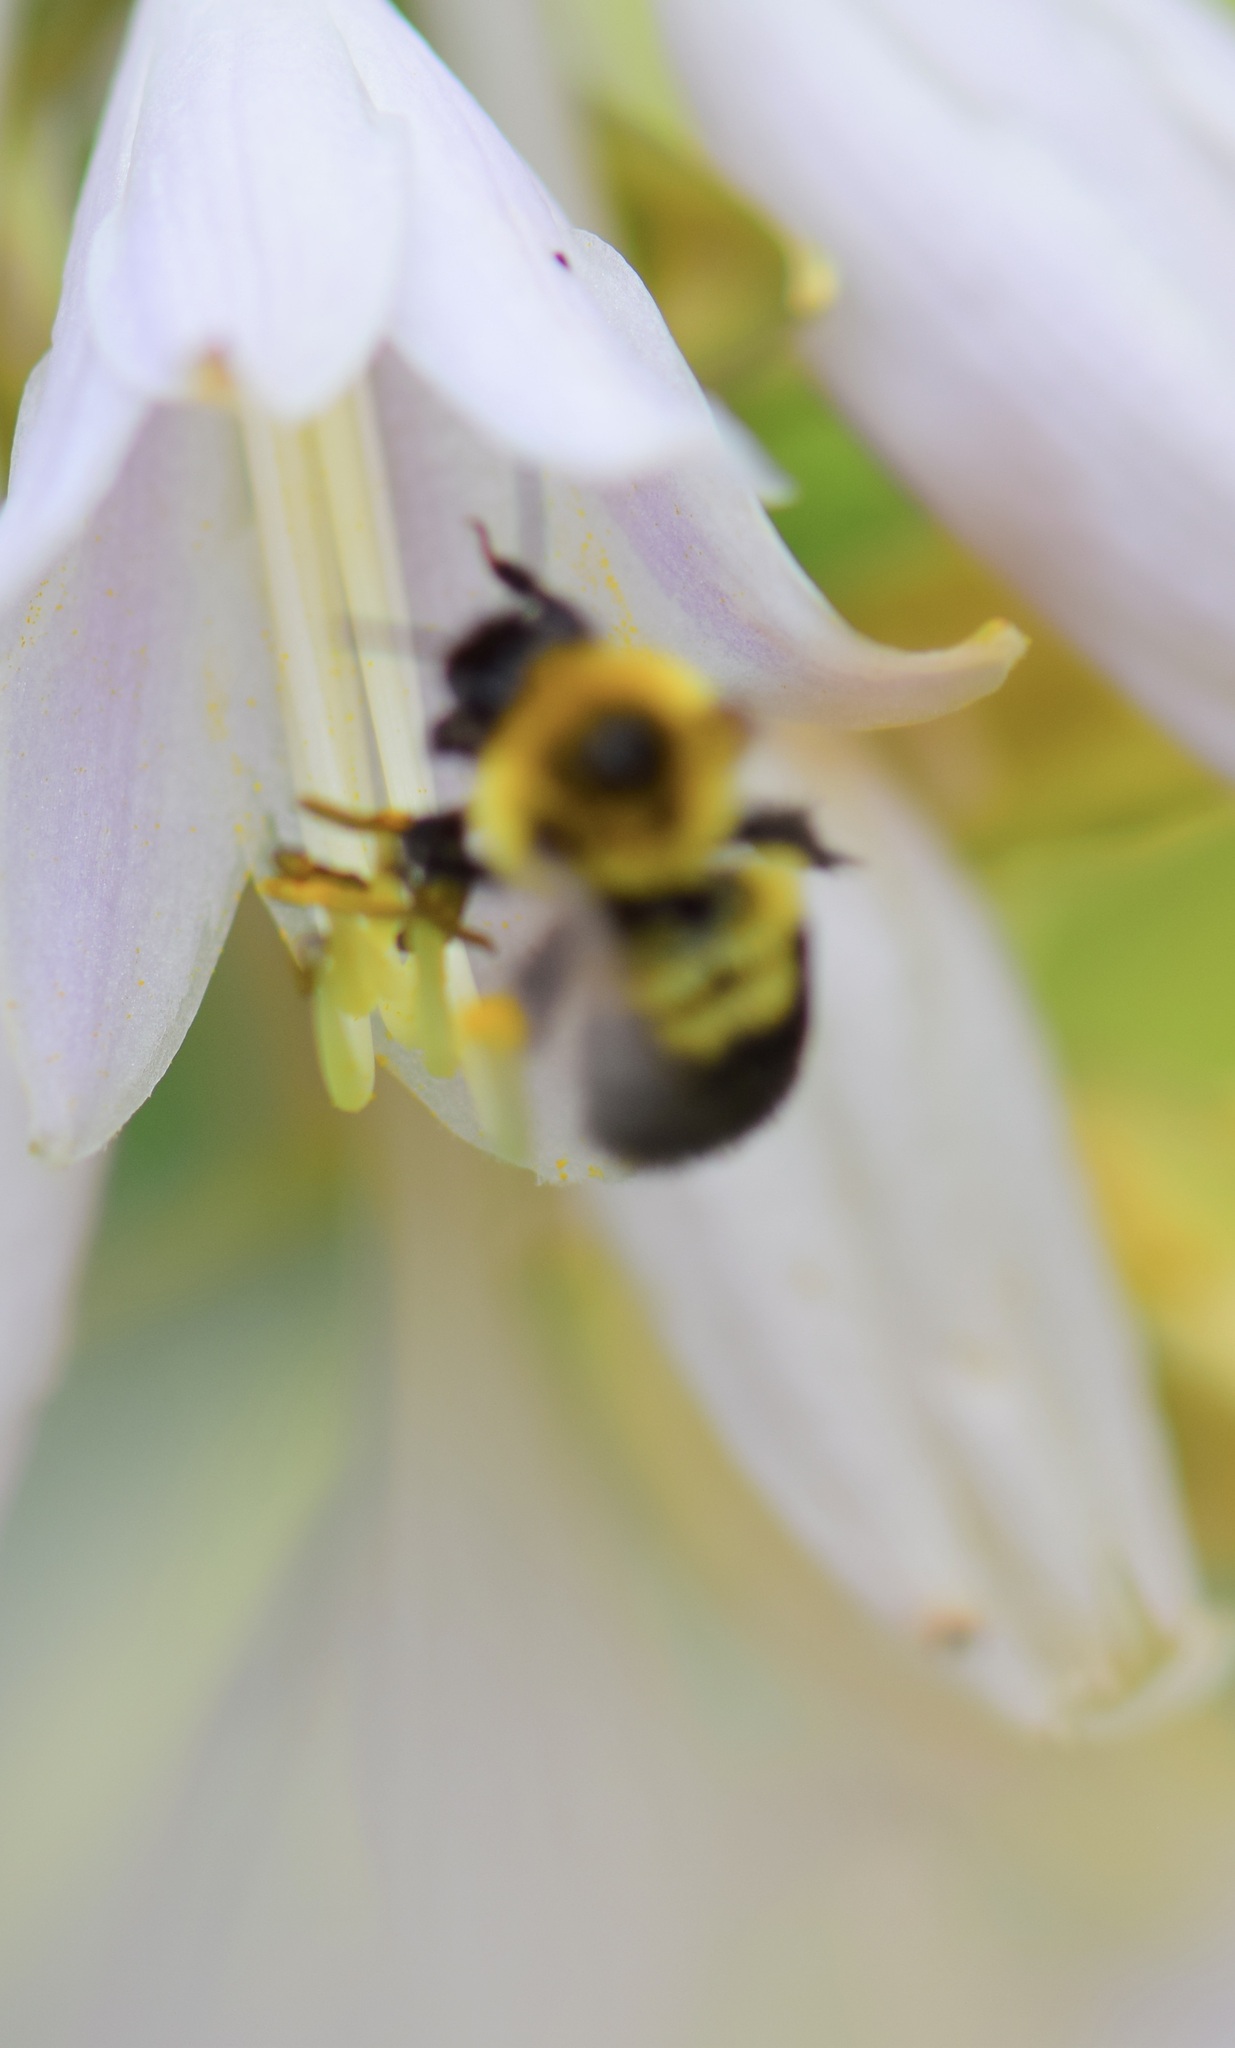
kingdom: Animalia
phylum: Arthropoda
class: Insecta
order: Hymenoptera
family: Apidae
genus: Bombus
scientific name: Bombus bimaculatus
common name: Two-spotted bumble bee
